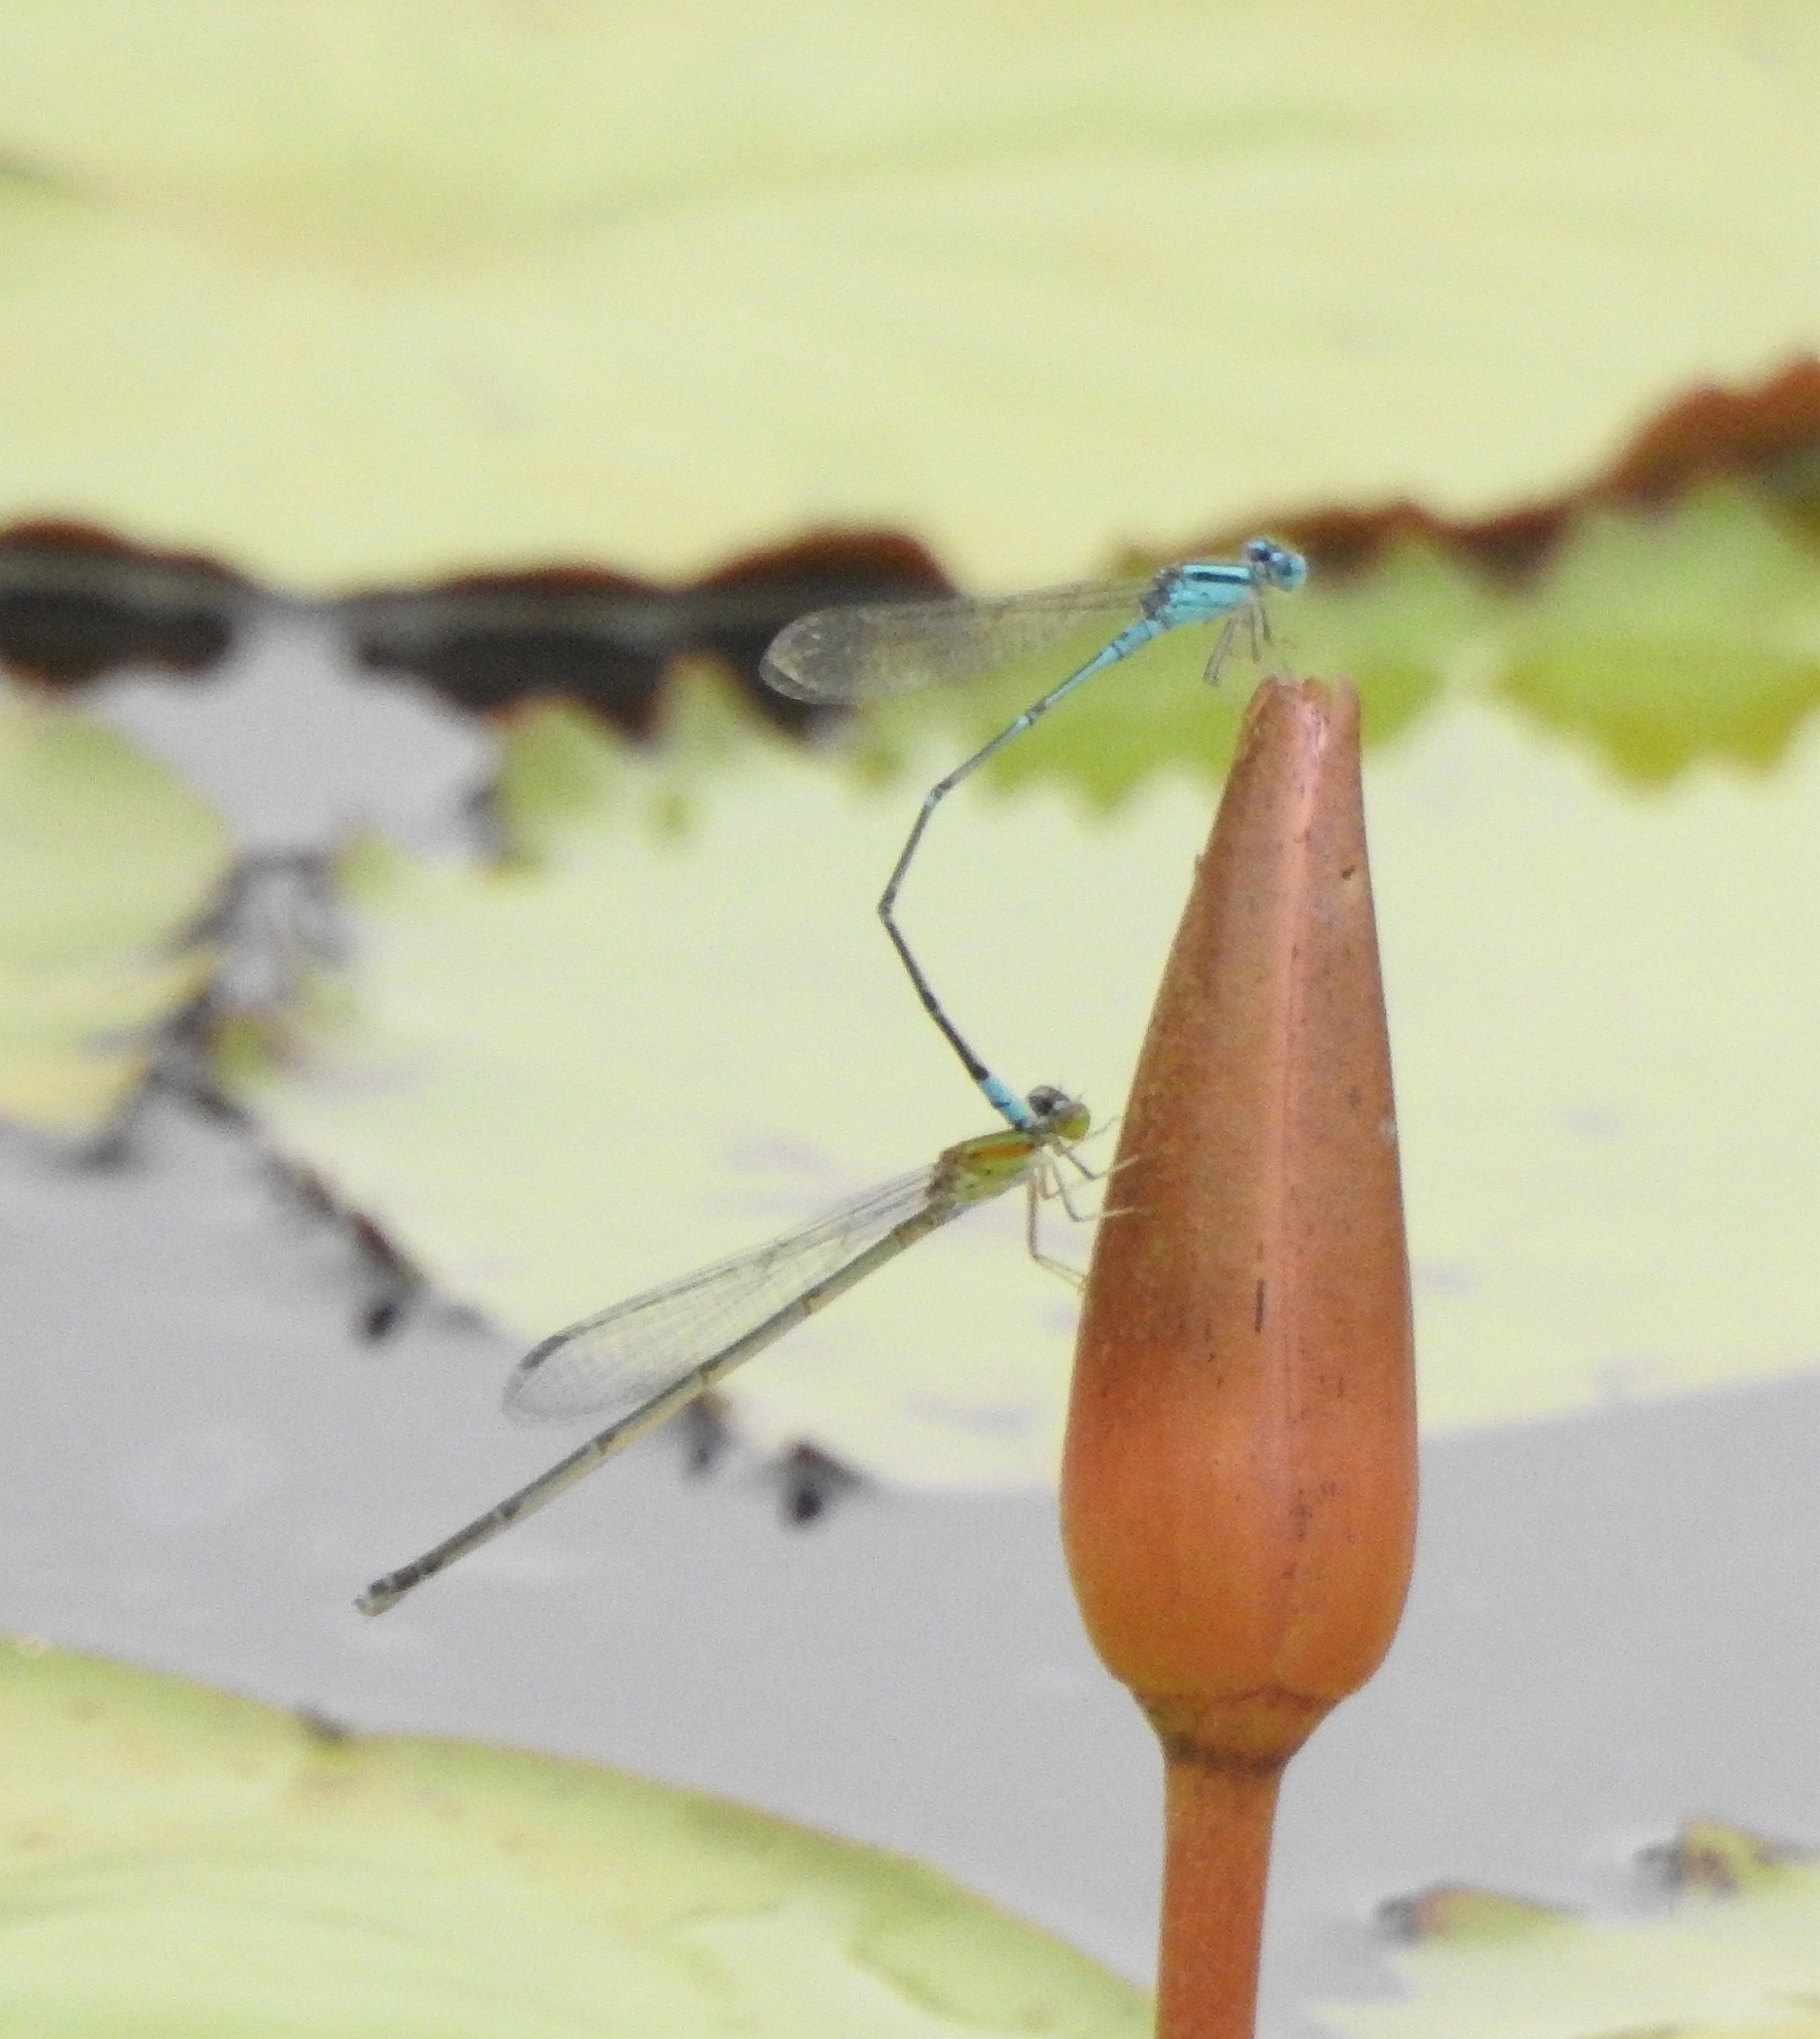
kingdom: Animalia
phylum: Arthropoda
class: Insecta
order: Odonata
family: Coenagrionidae
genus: Pseudagrion
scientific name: Pseudagrion microcephalum
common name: Blue riverdamsel
